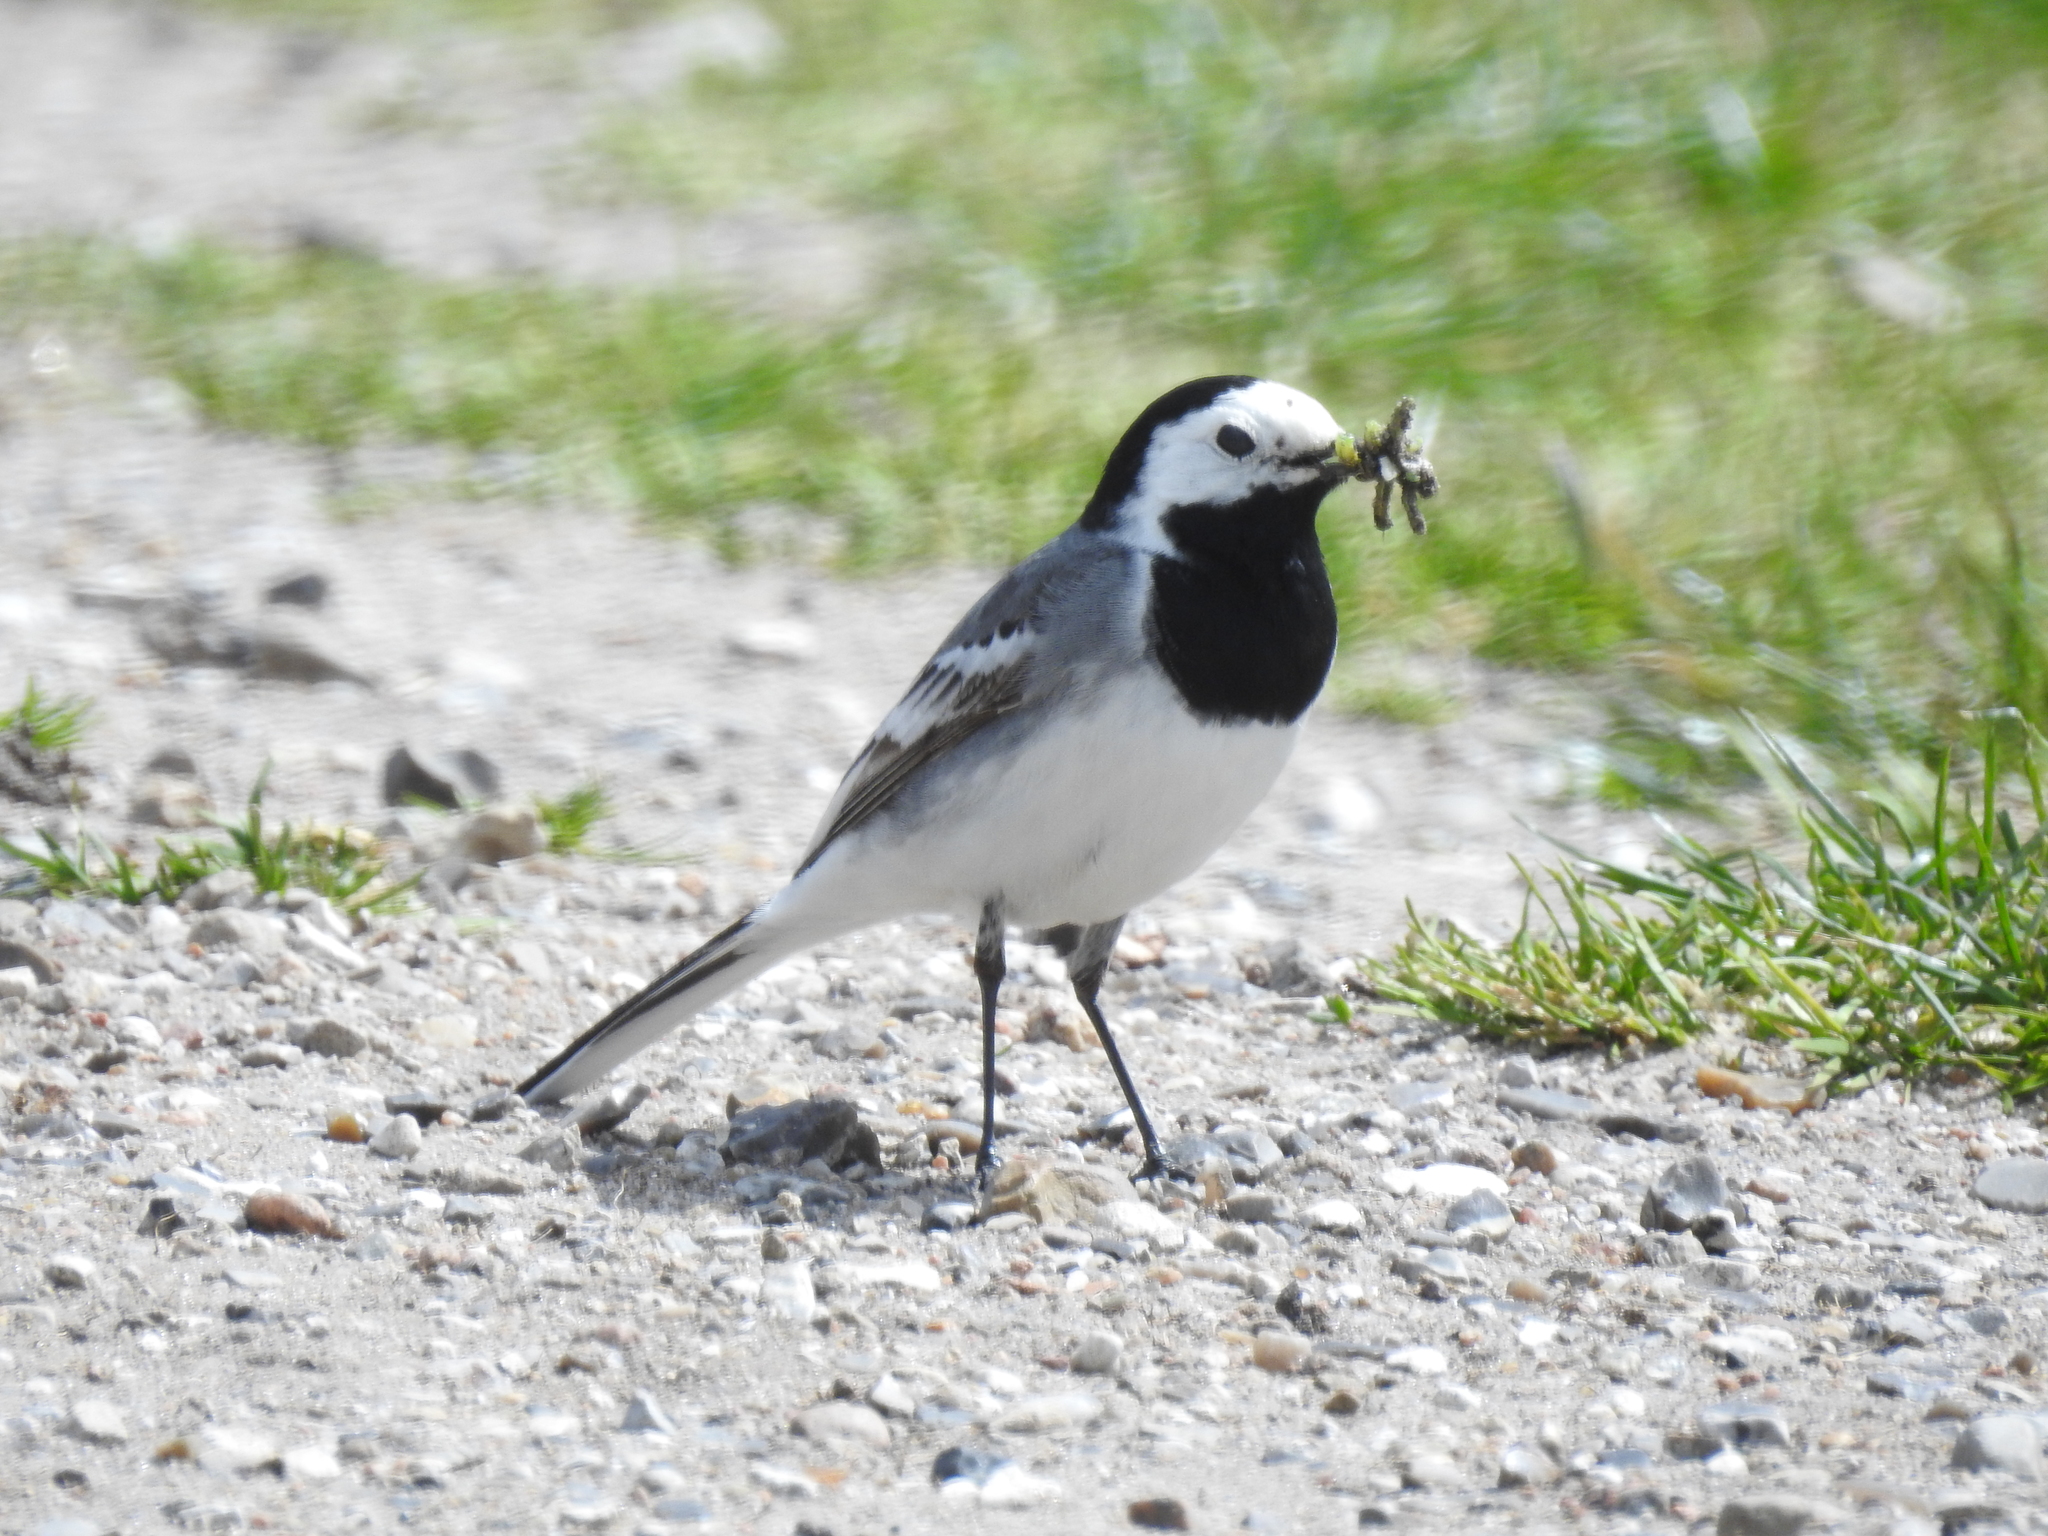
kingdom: Animalia
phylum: Chordata
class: Aves
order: Passeriformes
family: Motacillidae
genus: Motacilla
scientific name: Motacilla alba
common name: White wagtail
